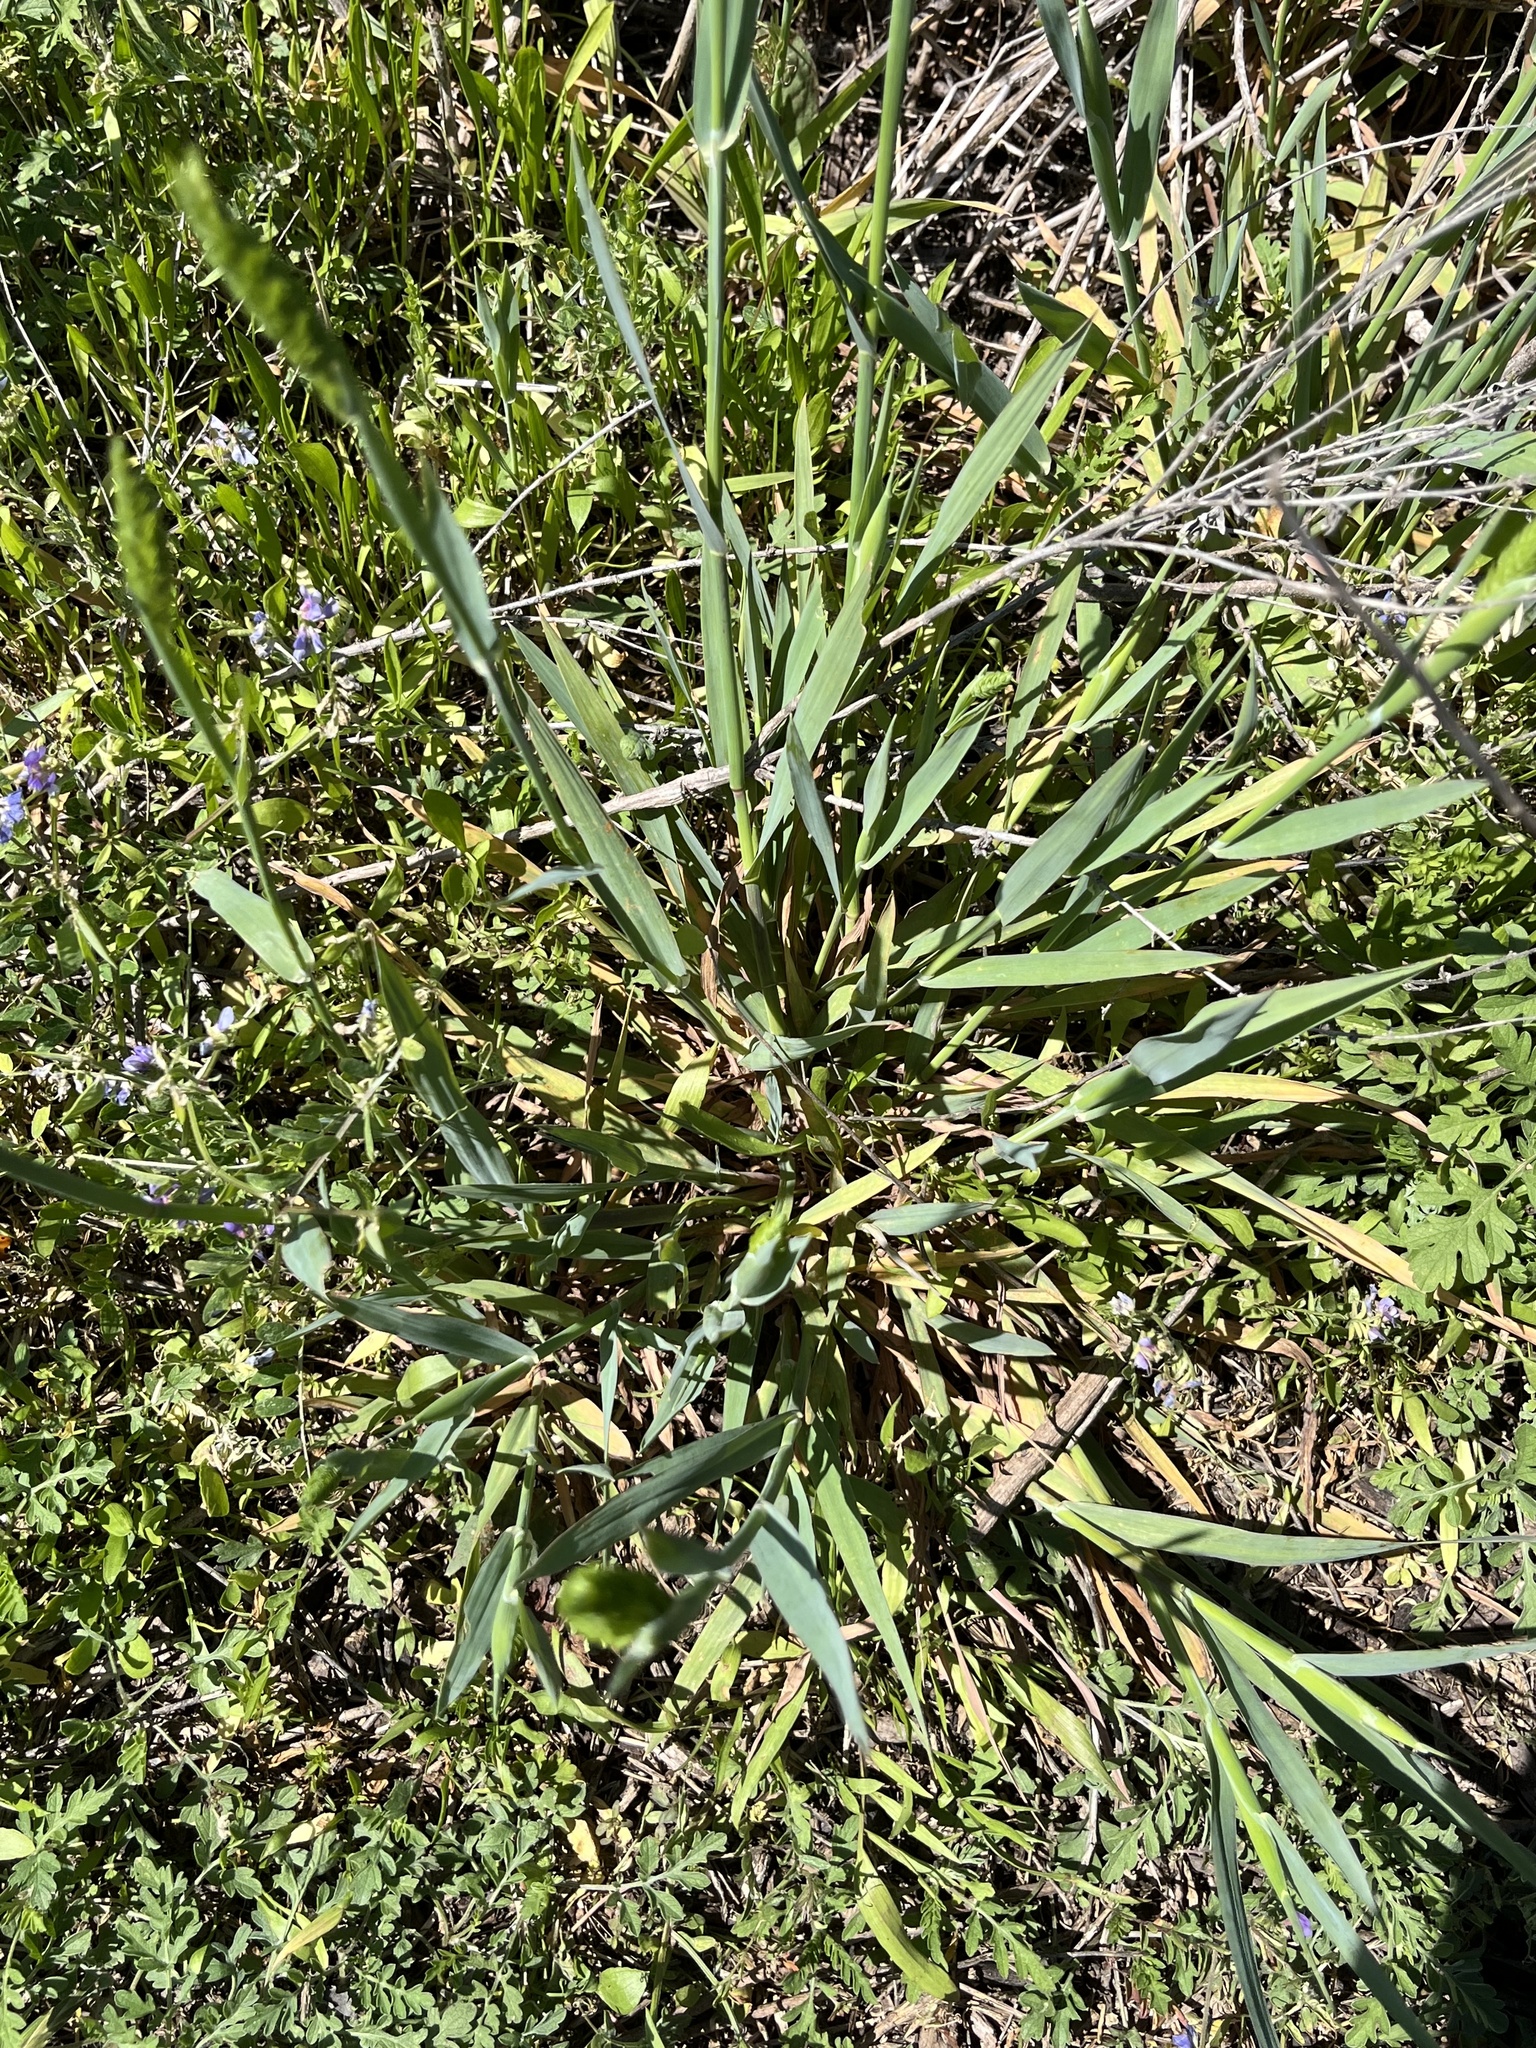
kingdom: Plantae
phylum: Tracheophyta
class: Liliopsida
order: Poales
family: Poaceae
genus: Phalaris
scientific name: Phalaris caroliniana
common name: May grass
